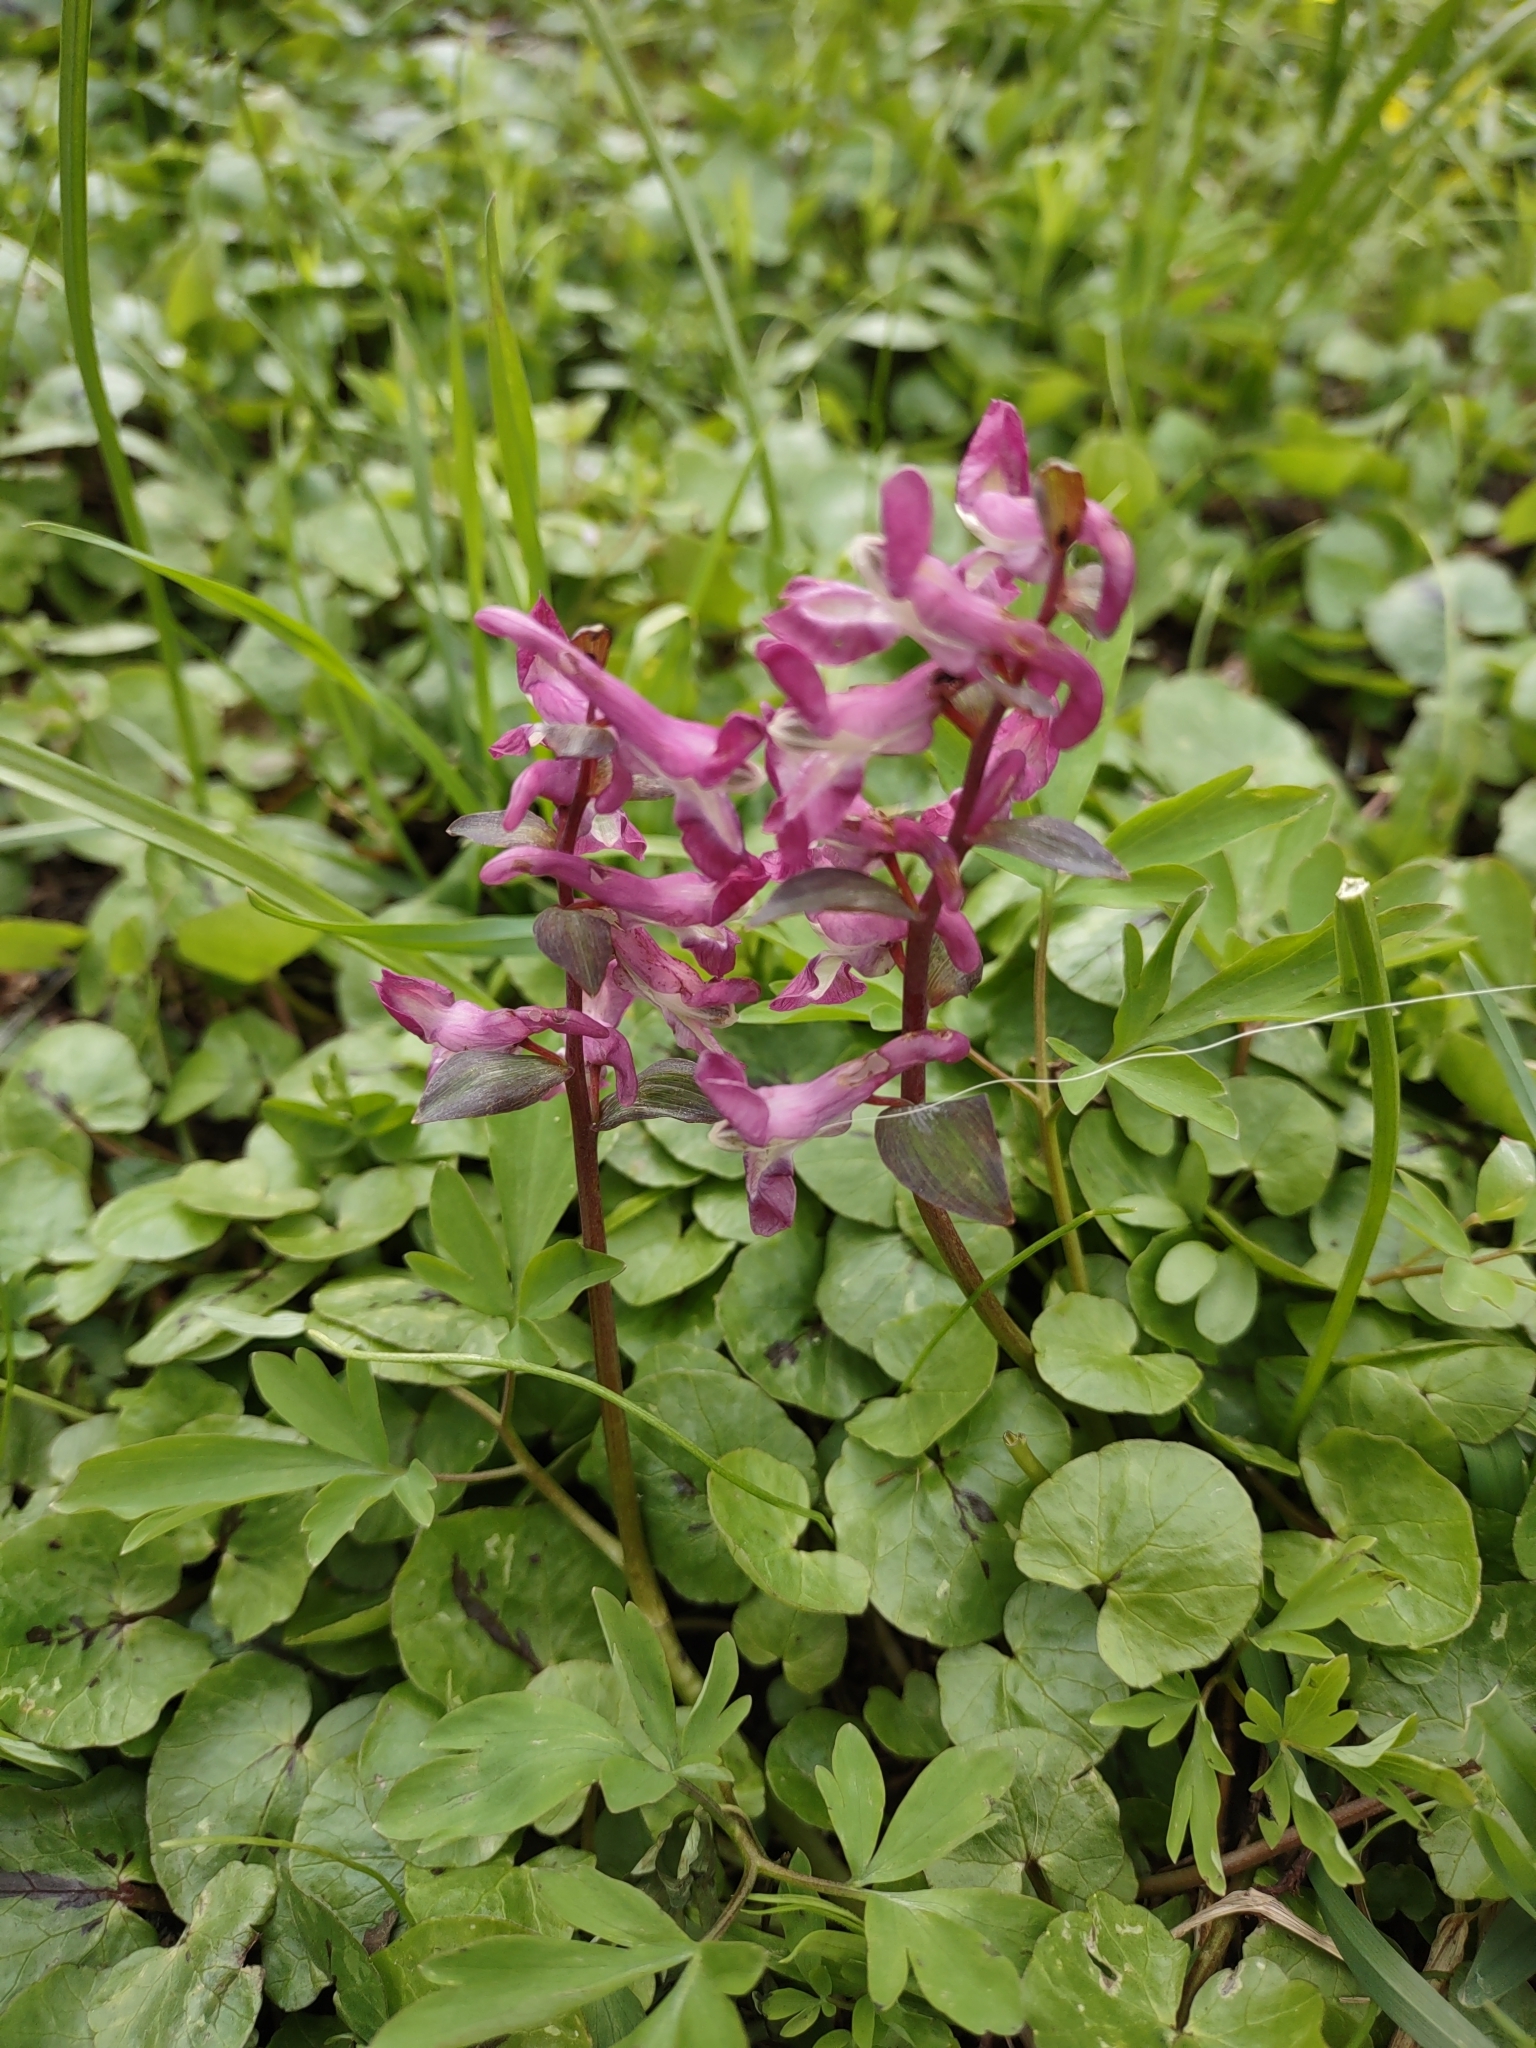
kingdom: Plantae
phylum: Tracheophyta
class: Magnoliopsida
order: Ranunculales
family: Papaveraceae
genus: Corydalis
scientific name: Corydalis cava
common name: Hollowroot
